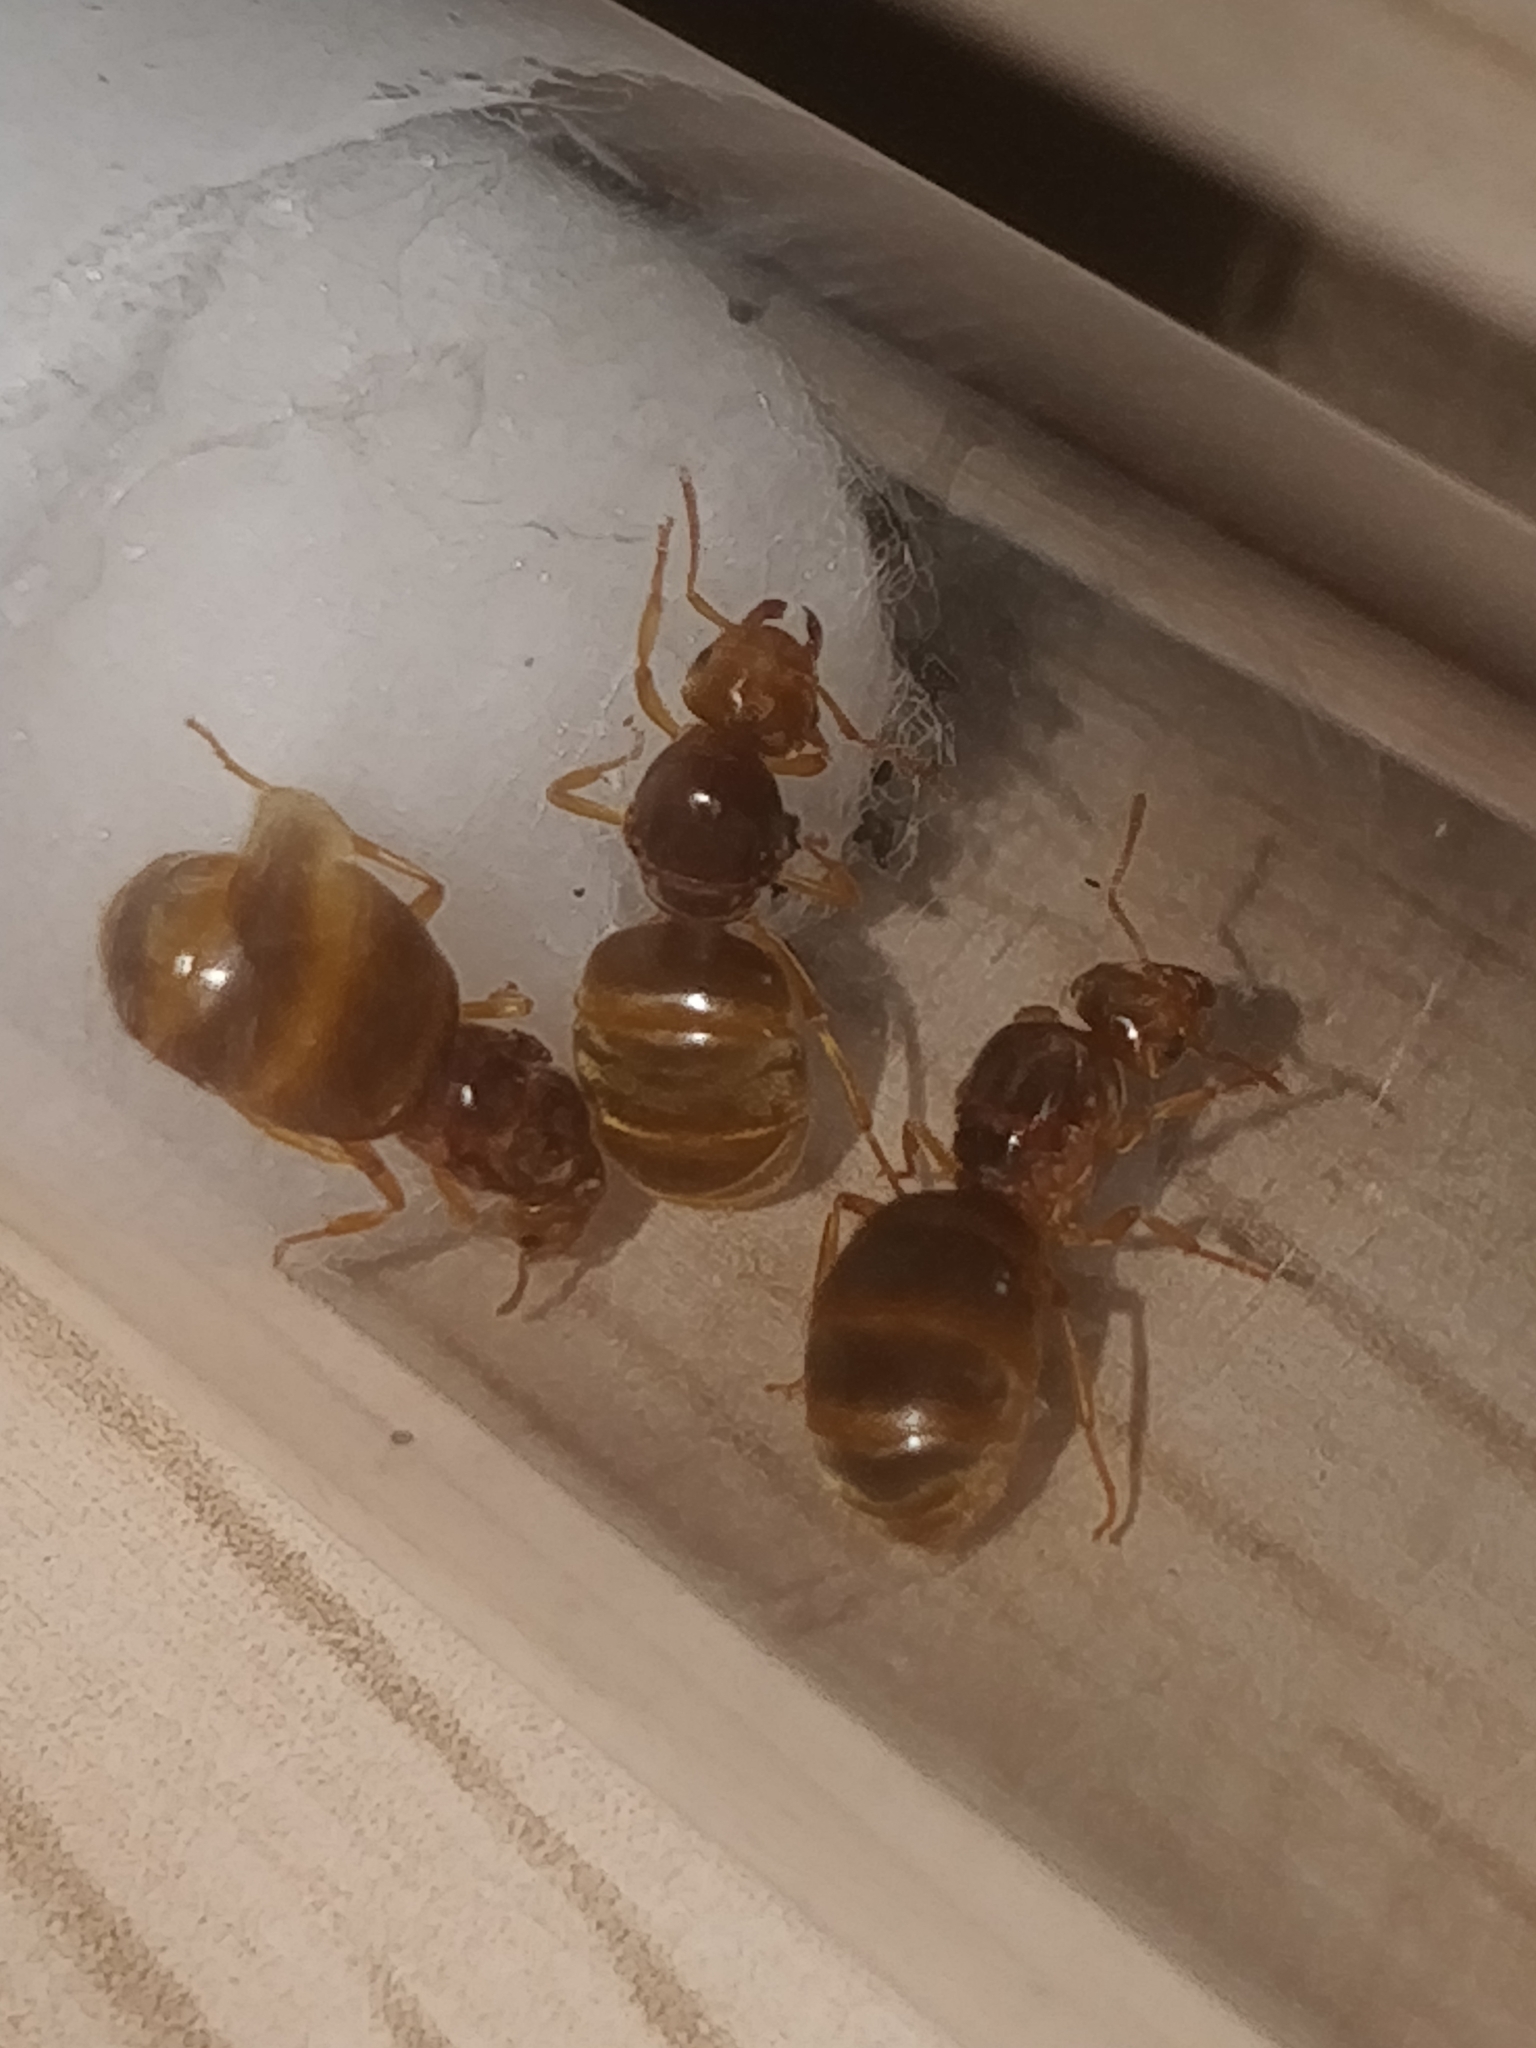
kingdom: Animalia
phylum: Arthropoda
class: Insecta
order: Hymenoptera
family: Formicidae
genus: Lasius
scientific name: Lasius
